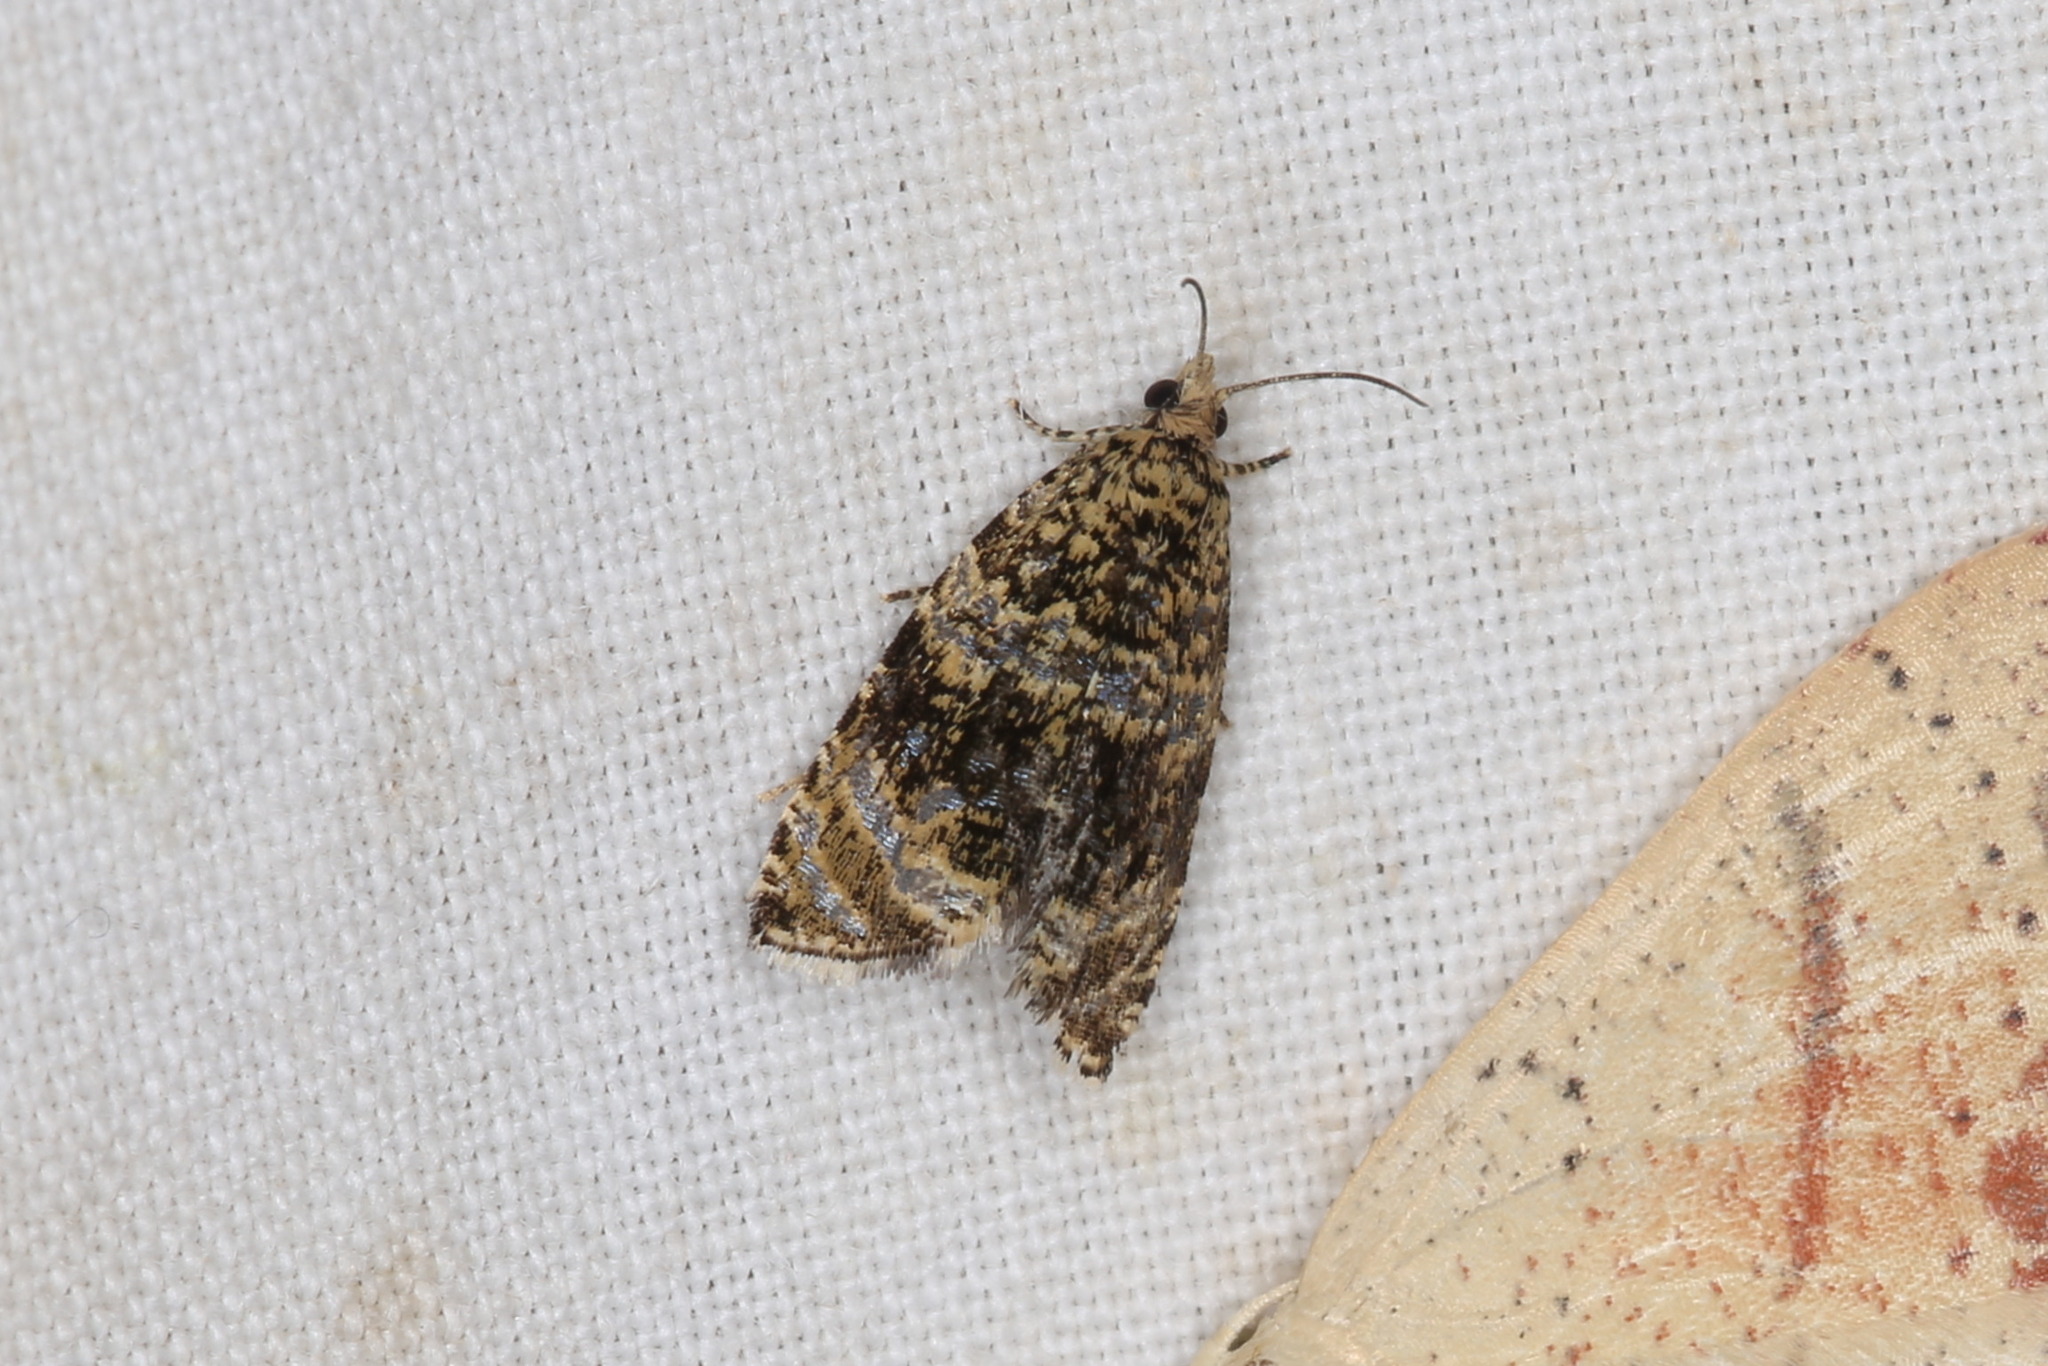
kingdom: Animalia
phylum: Arthropoda
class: Insecta
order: Lepidoptera
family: Tortricidae
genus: Syricoris
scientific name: Syricoris lacunana
